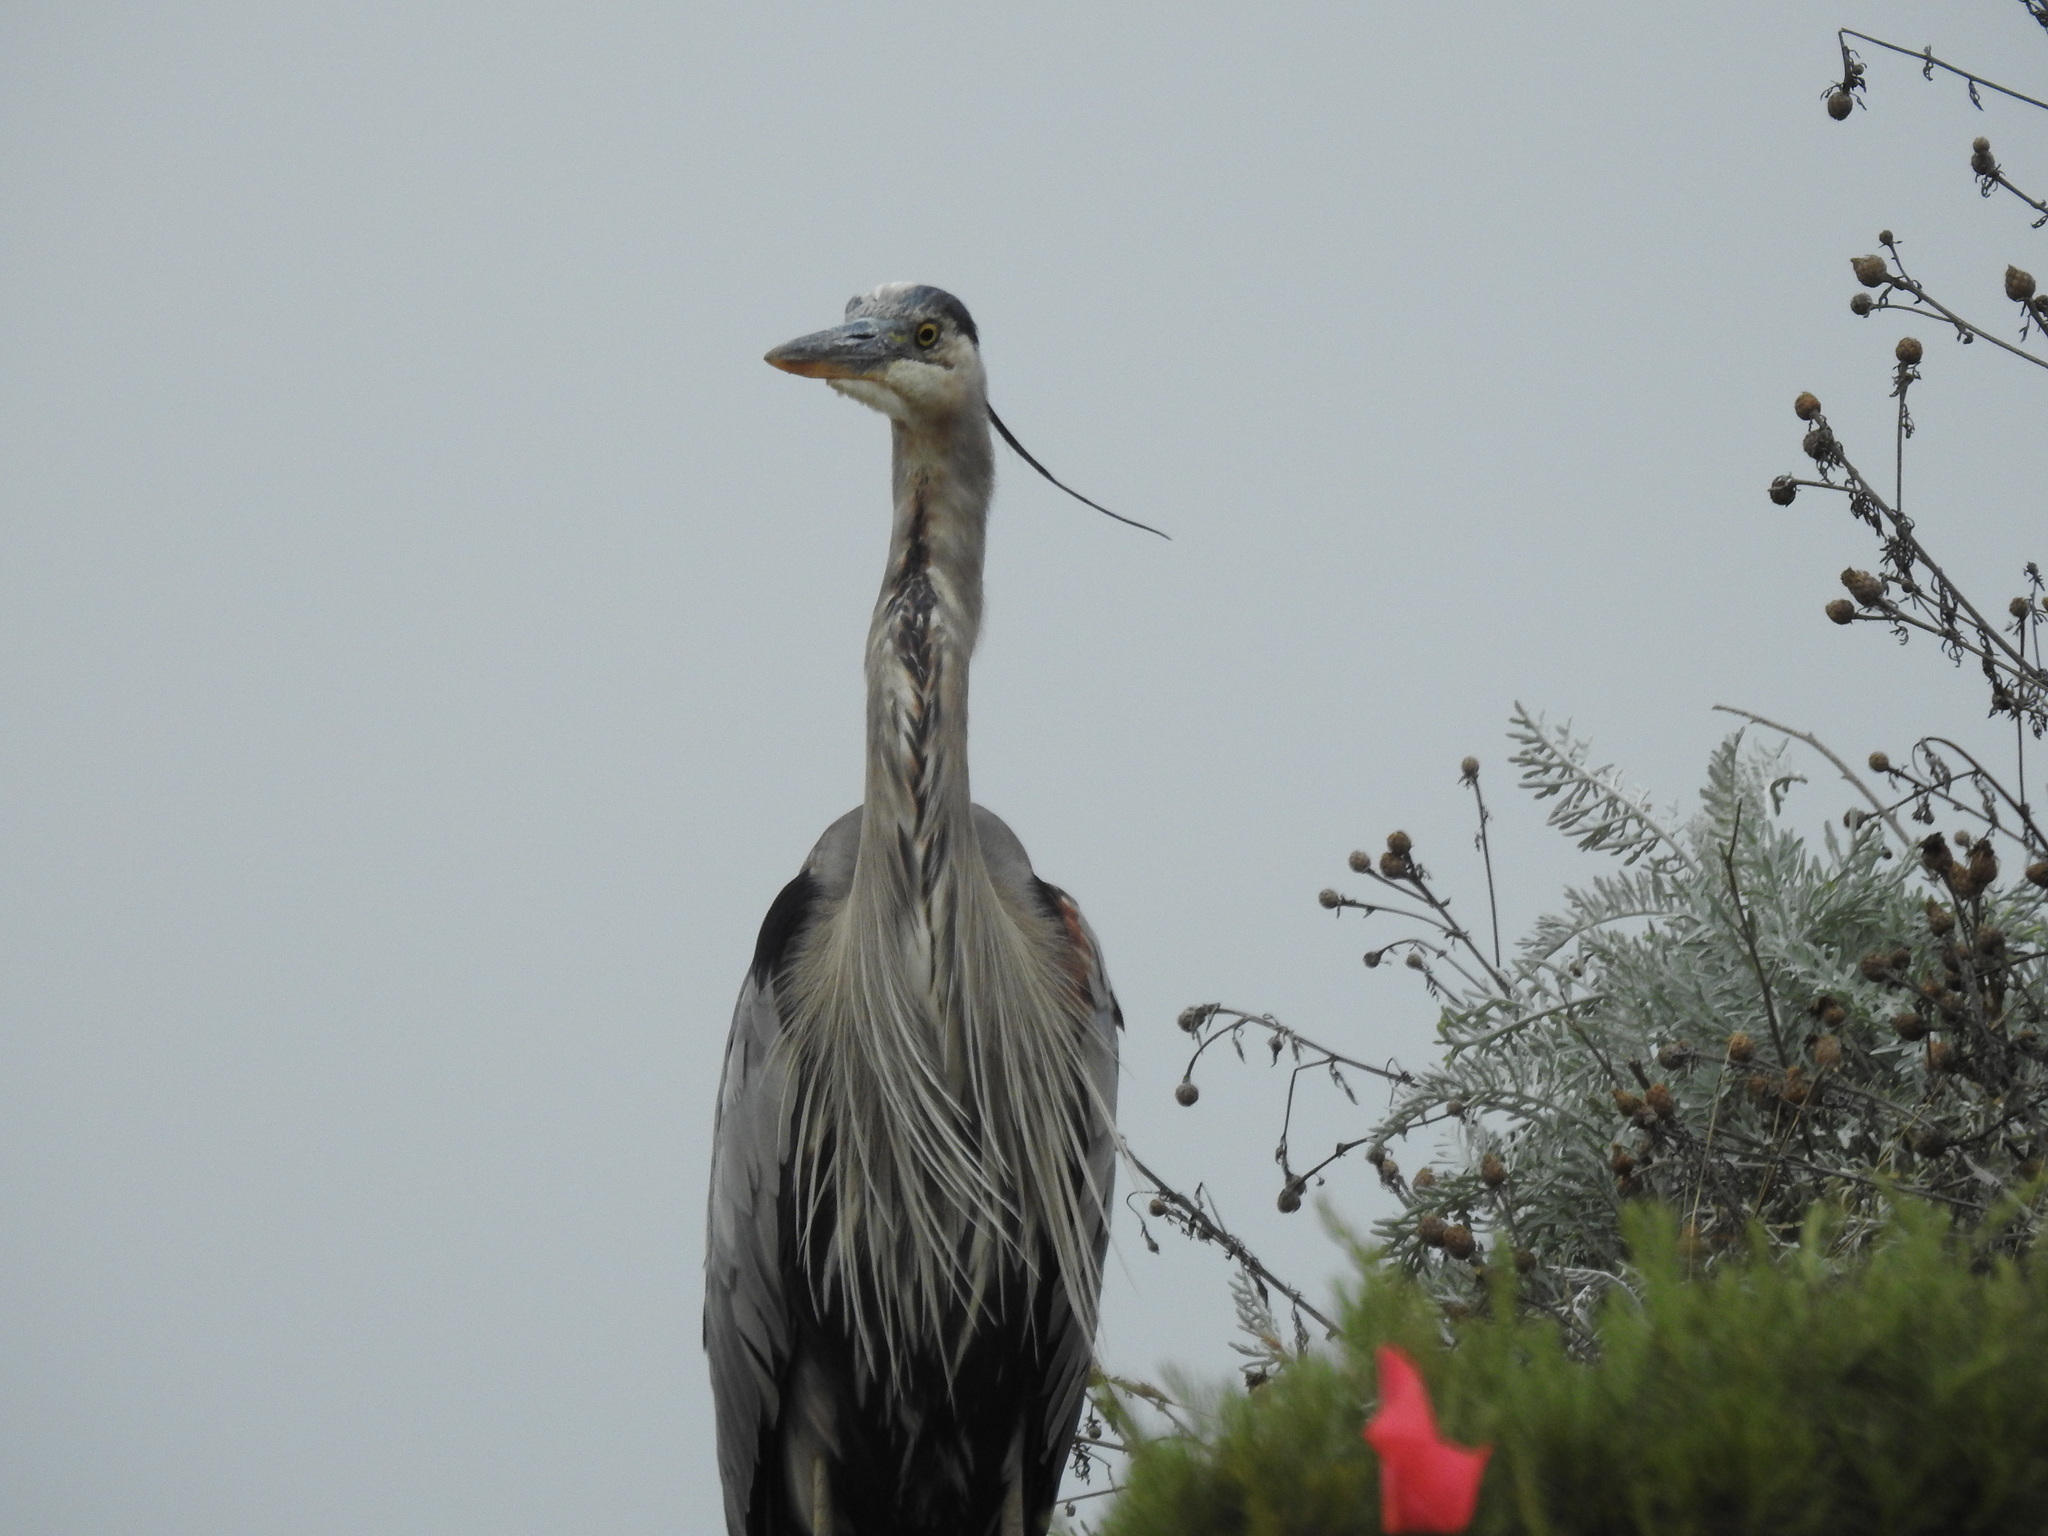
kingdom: Animalia
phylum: Chordata
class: Aves
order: Pelecaniformes
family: Ardeidae
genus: Ardea
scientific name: Ardea herodias
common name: Great blue heron
